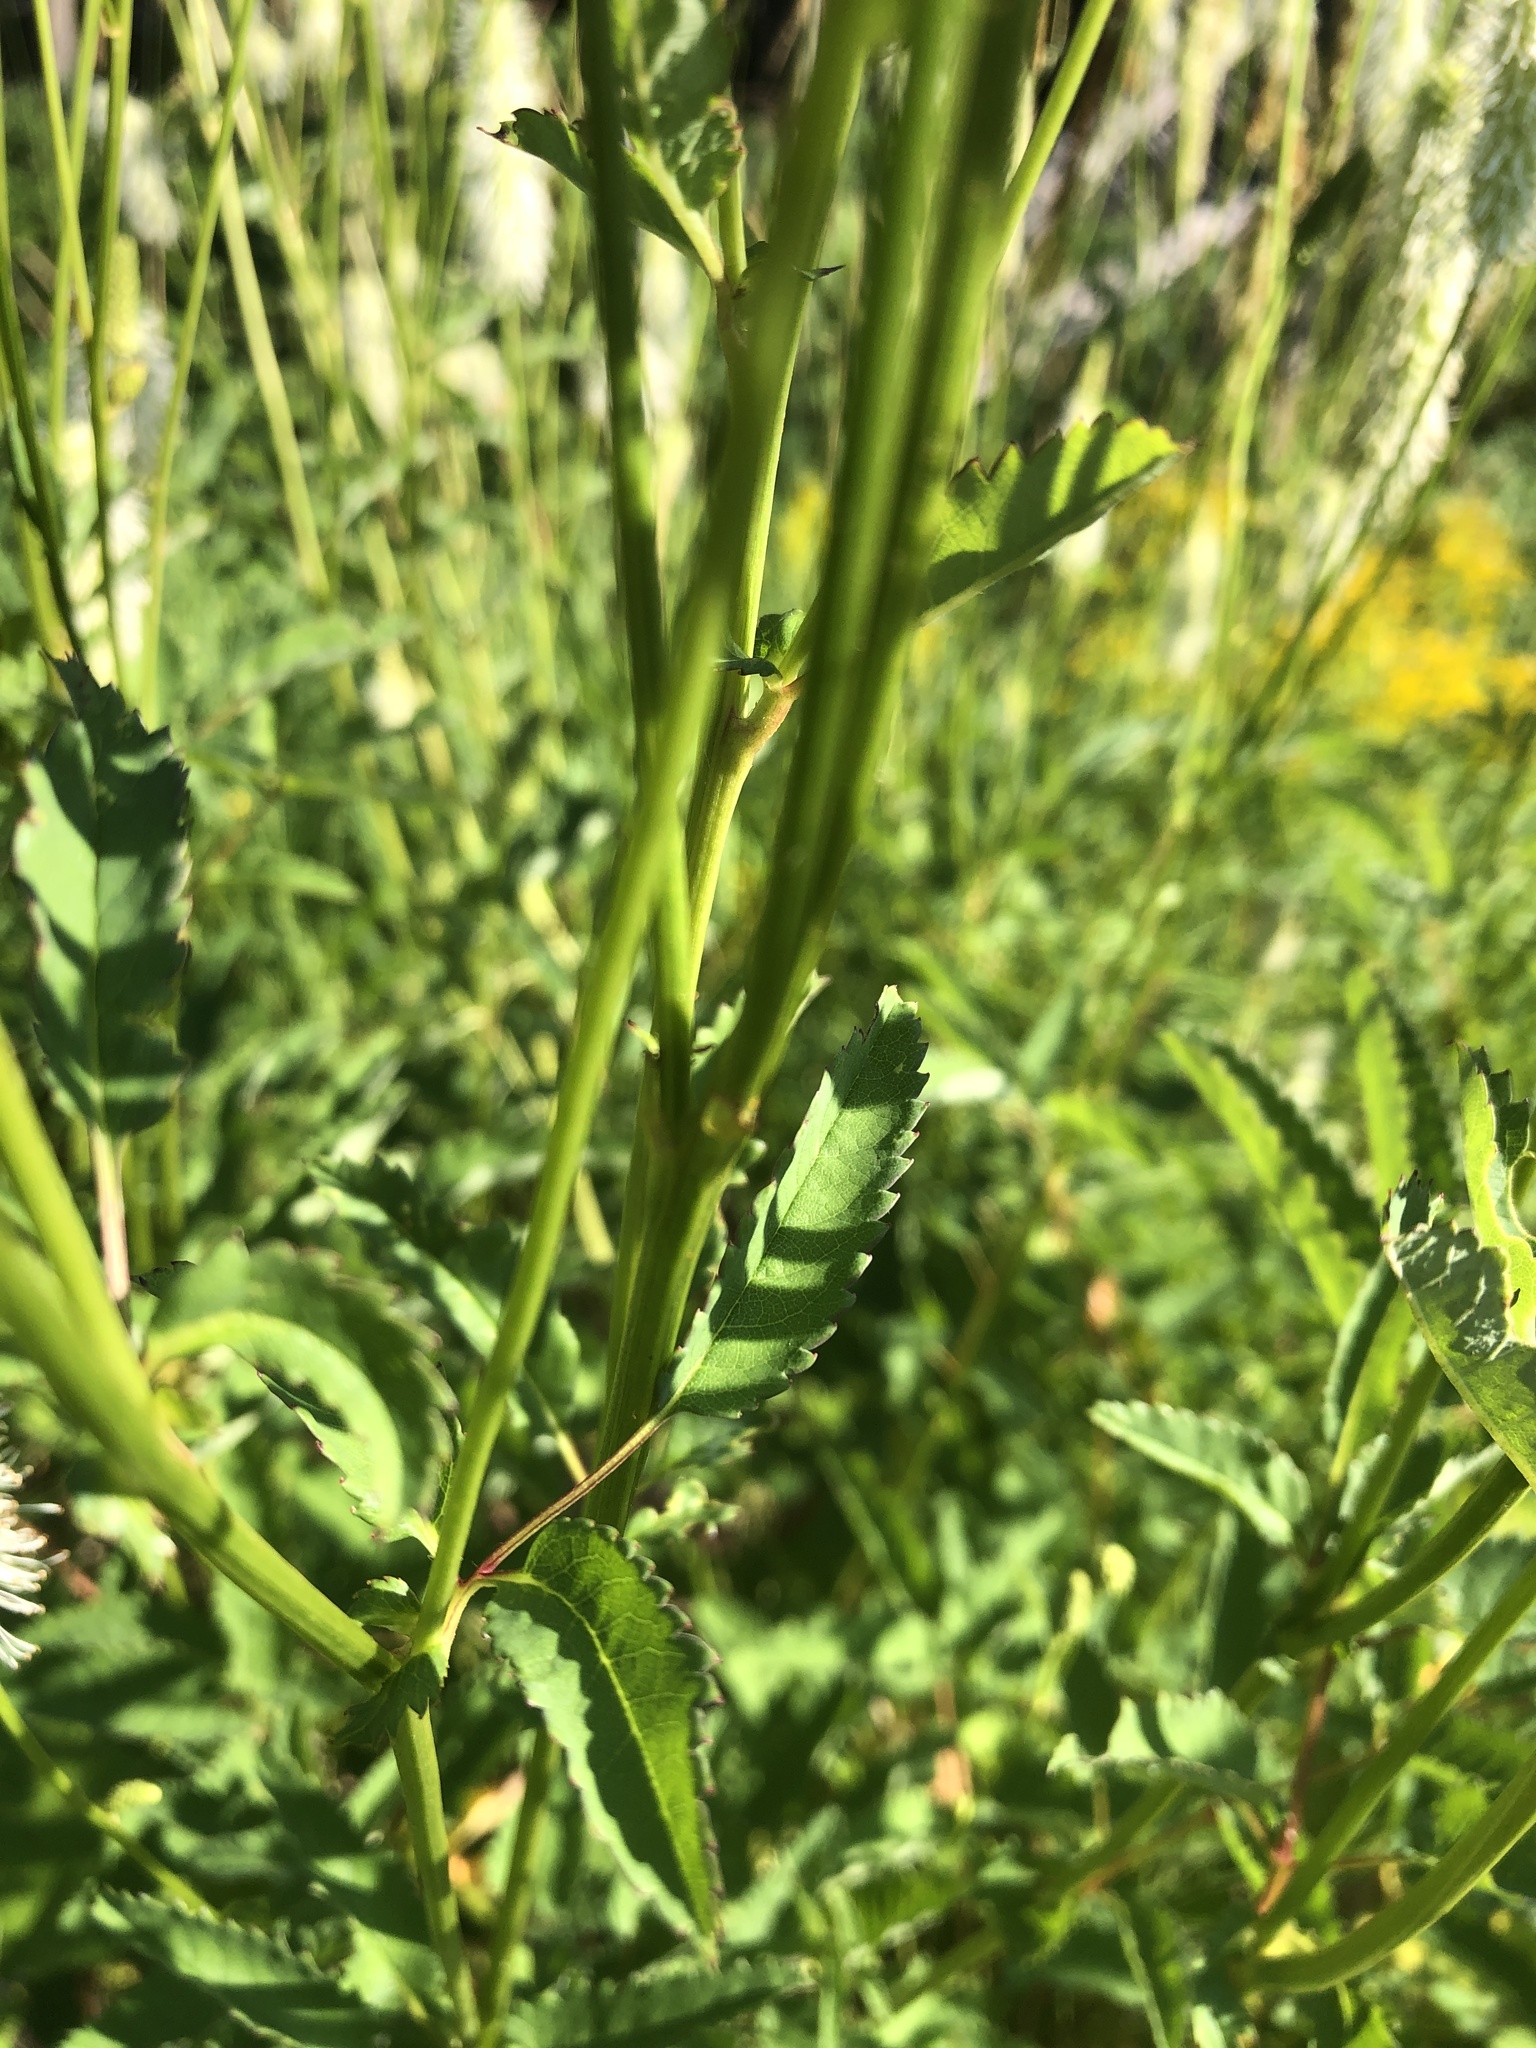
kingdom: Plantae
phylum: Tracheophyta
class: Magnoliopsida
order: Rosales
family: Rosaceae
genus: Sanguisorba
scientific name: Sanguisorba canadensis
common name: White burnet
